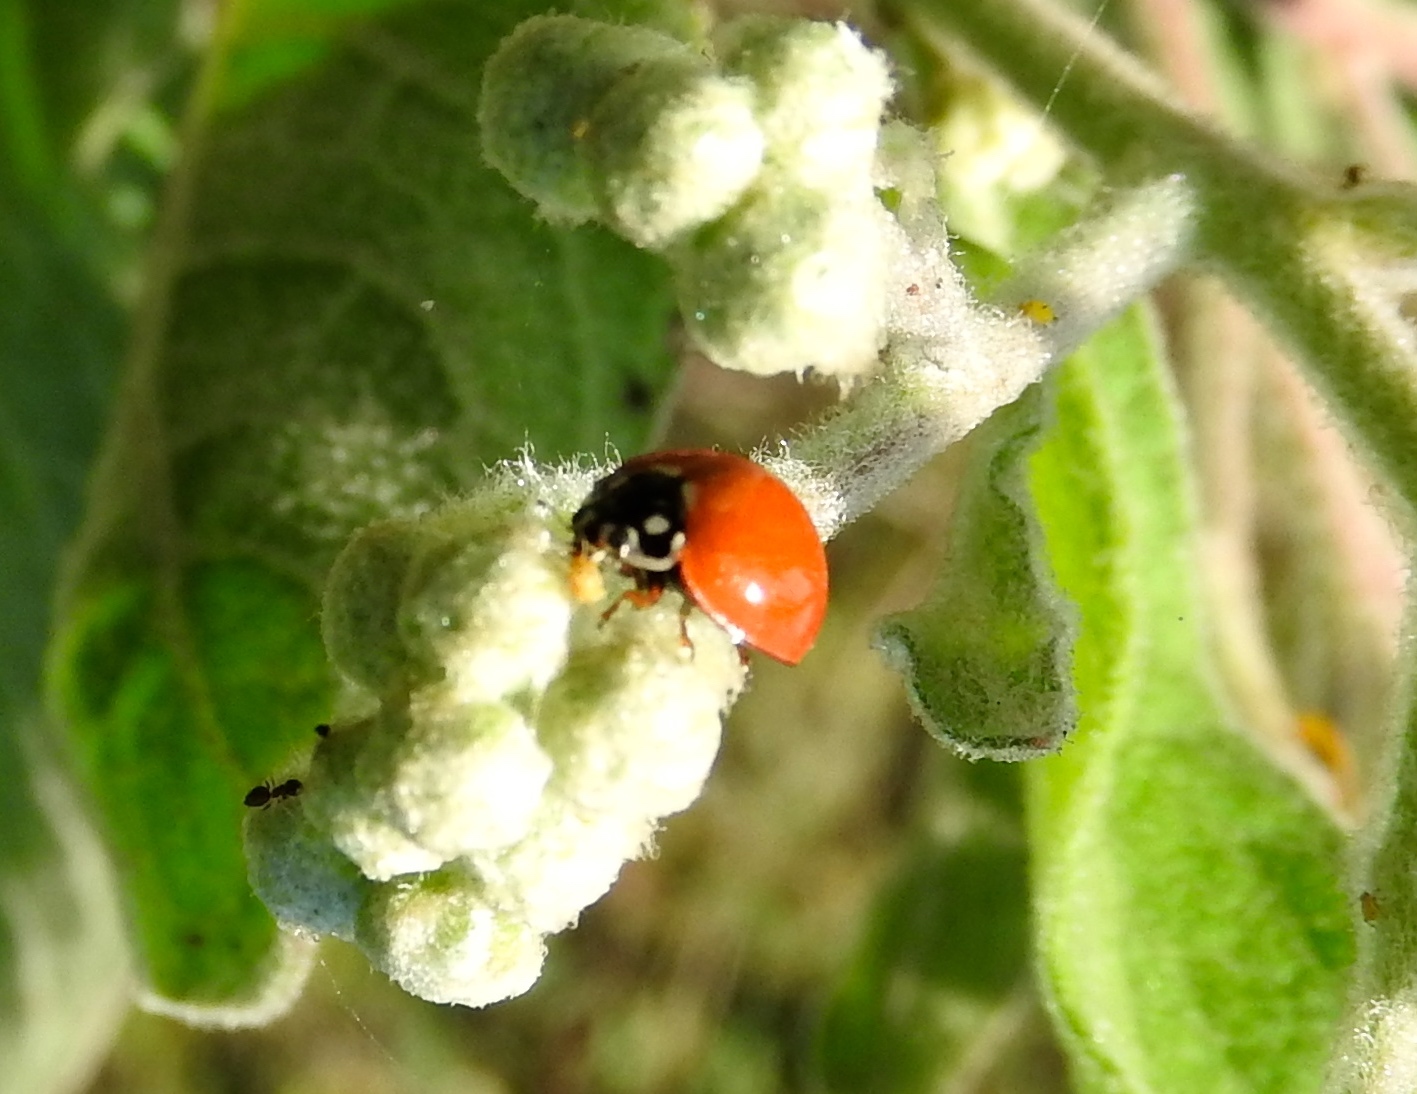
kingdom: Animalia
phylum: Arthropoda
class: Insecta
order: Coleoptera
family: Coccinellidae
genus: Cycloneda
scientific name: Cycloneda sanguinea
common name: Ladybird beetle
